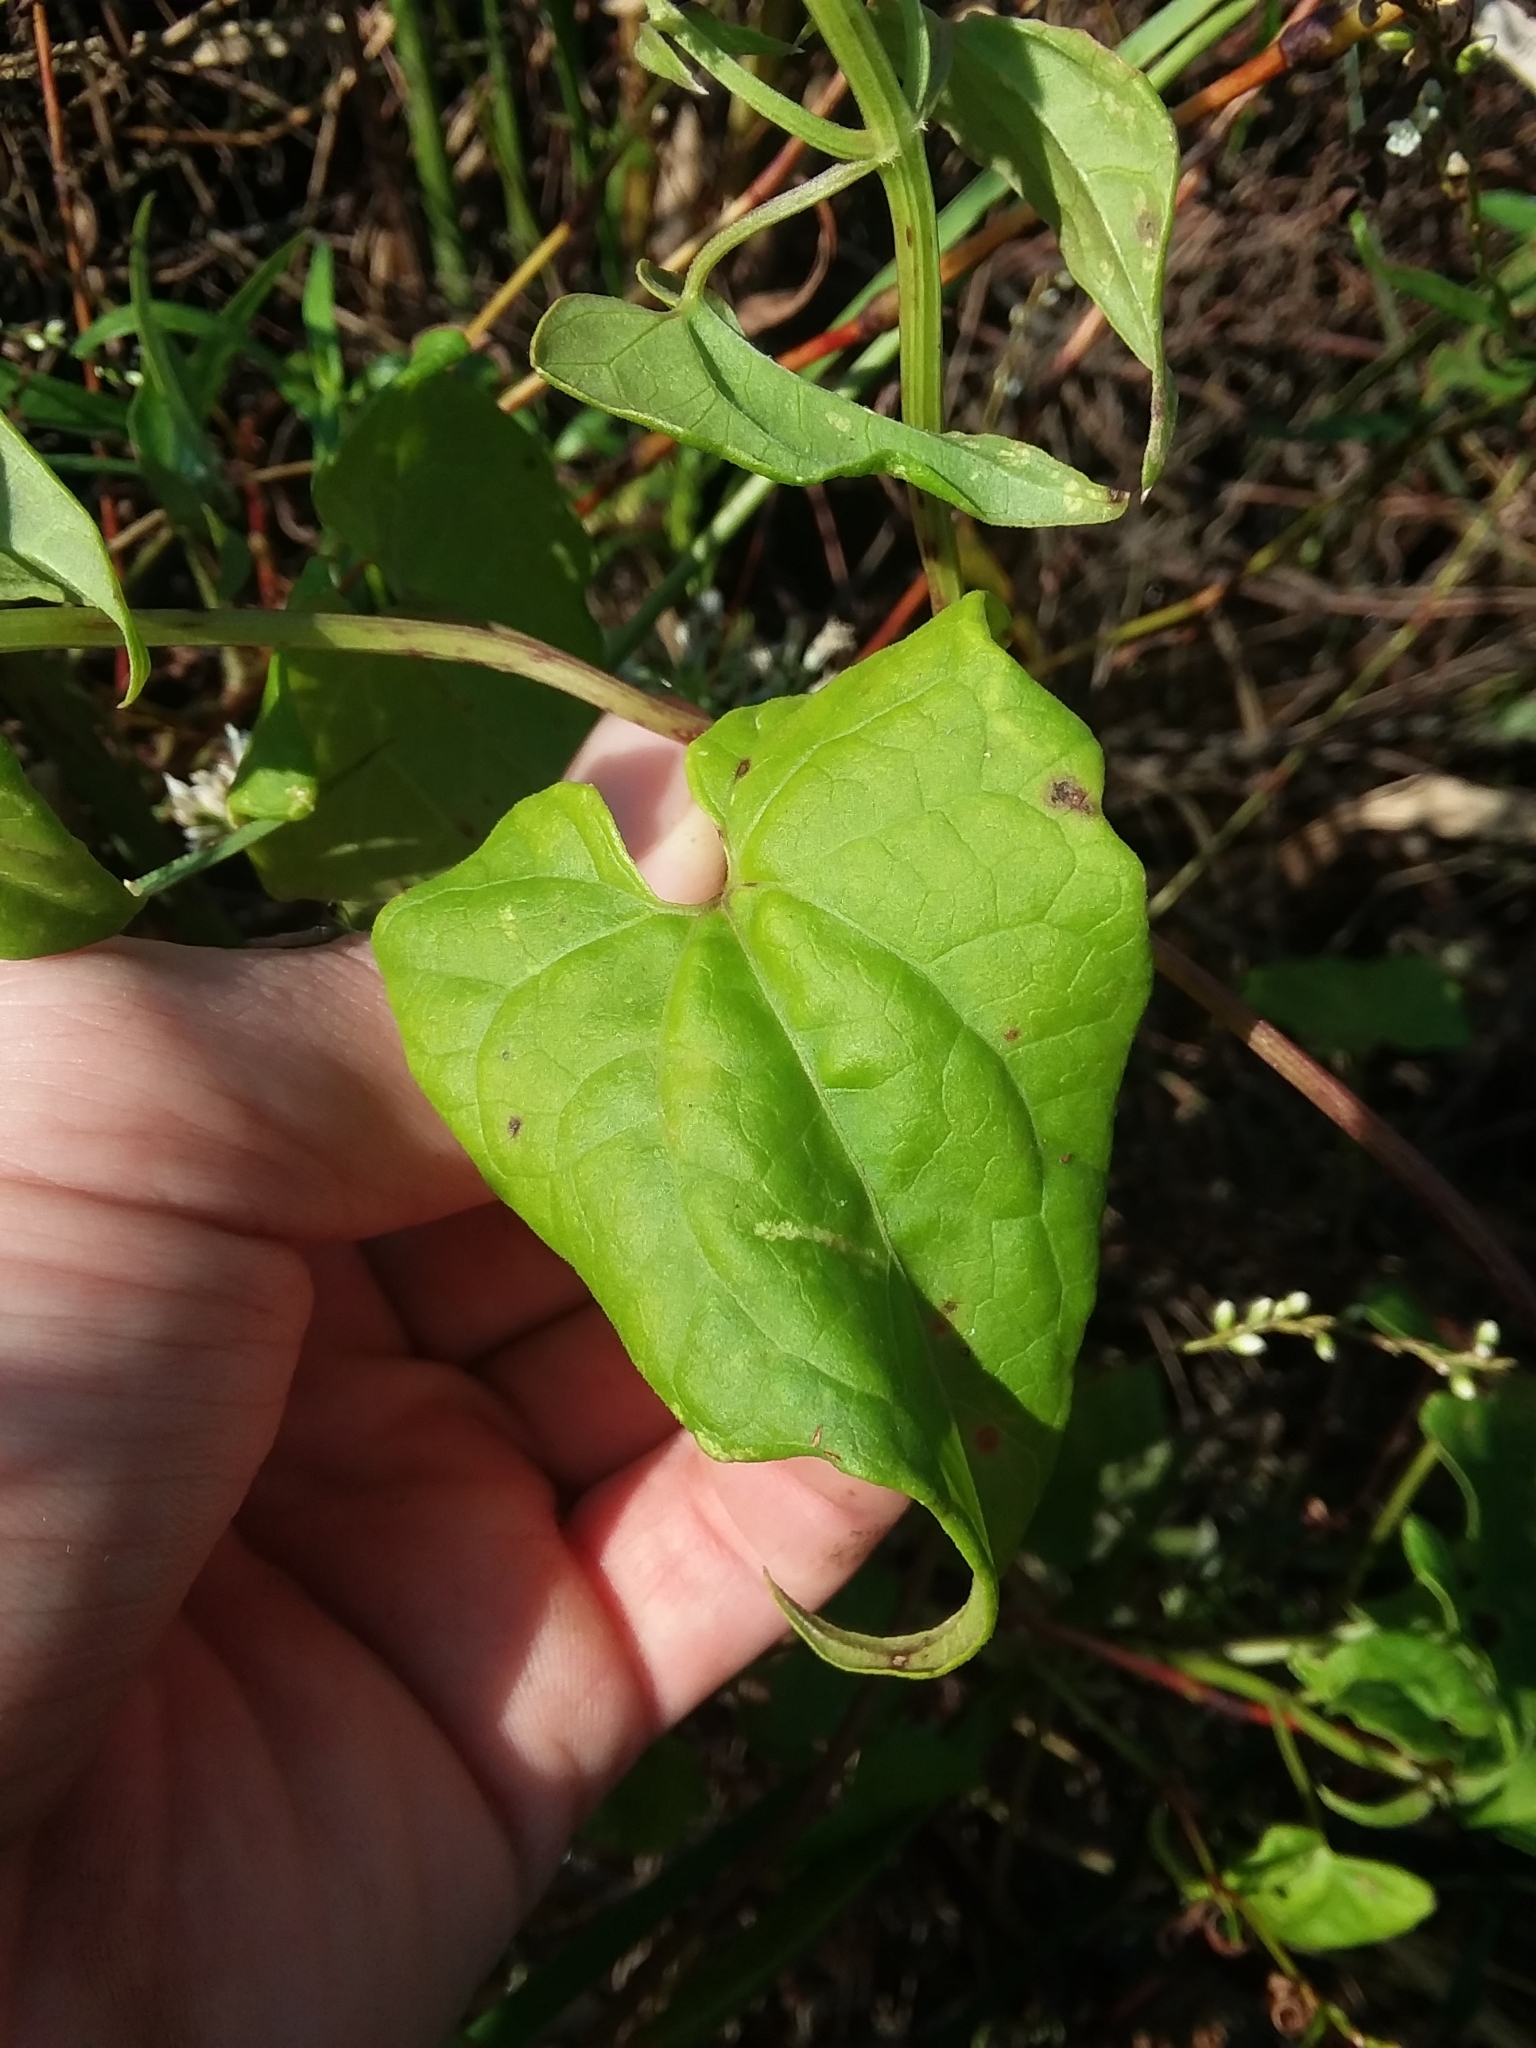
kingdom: Plantae
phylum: Tracheophyta
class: Magnoliopsida
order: Asterales
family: Asteraceae
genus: Mikania
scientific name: Mikania scandens
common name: Climbing hempvine
